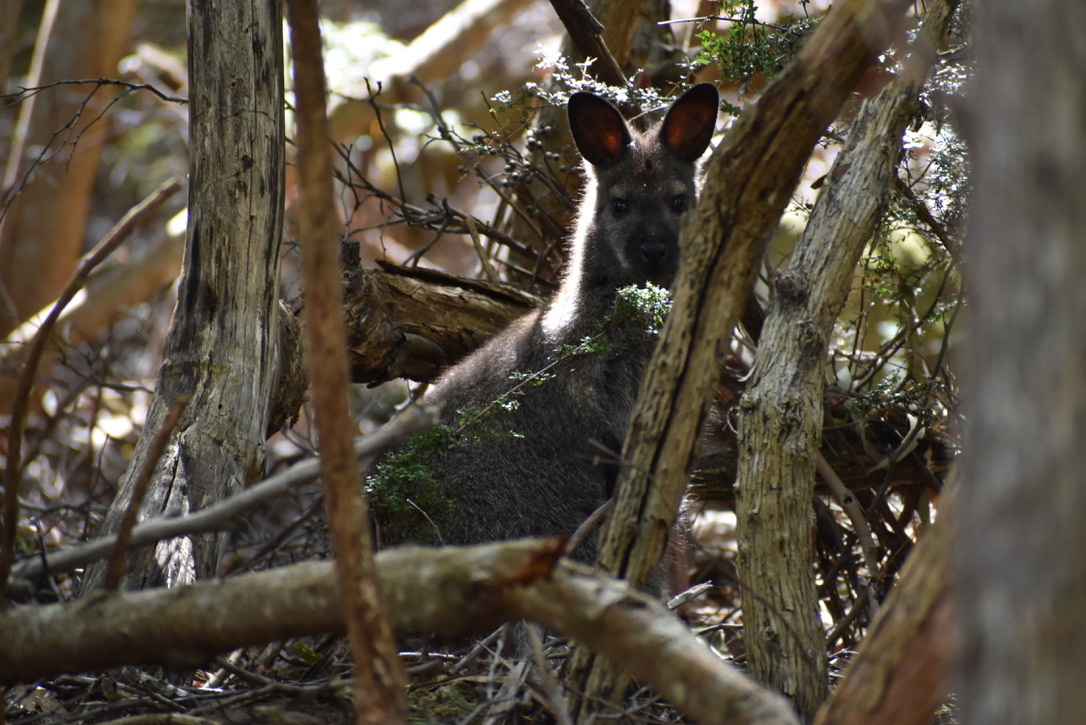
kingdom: Animalia
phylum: Chordata
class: Mammalia
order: Diprotodontia
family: Macropodidae
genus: Notamacropus
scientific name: Notamacropus rufogriseus
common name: Red-necked wallaby
